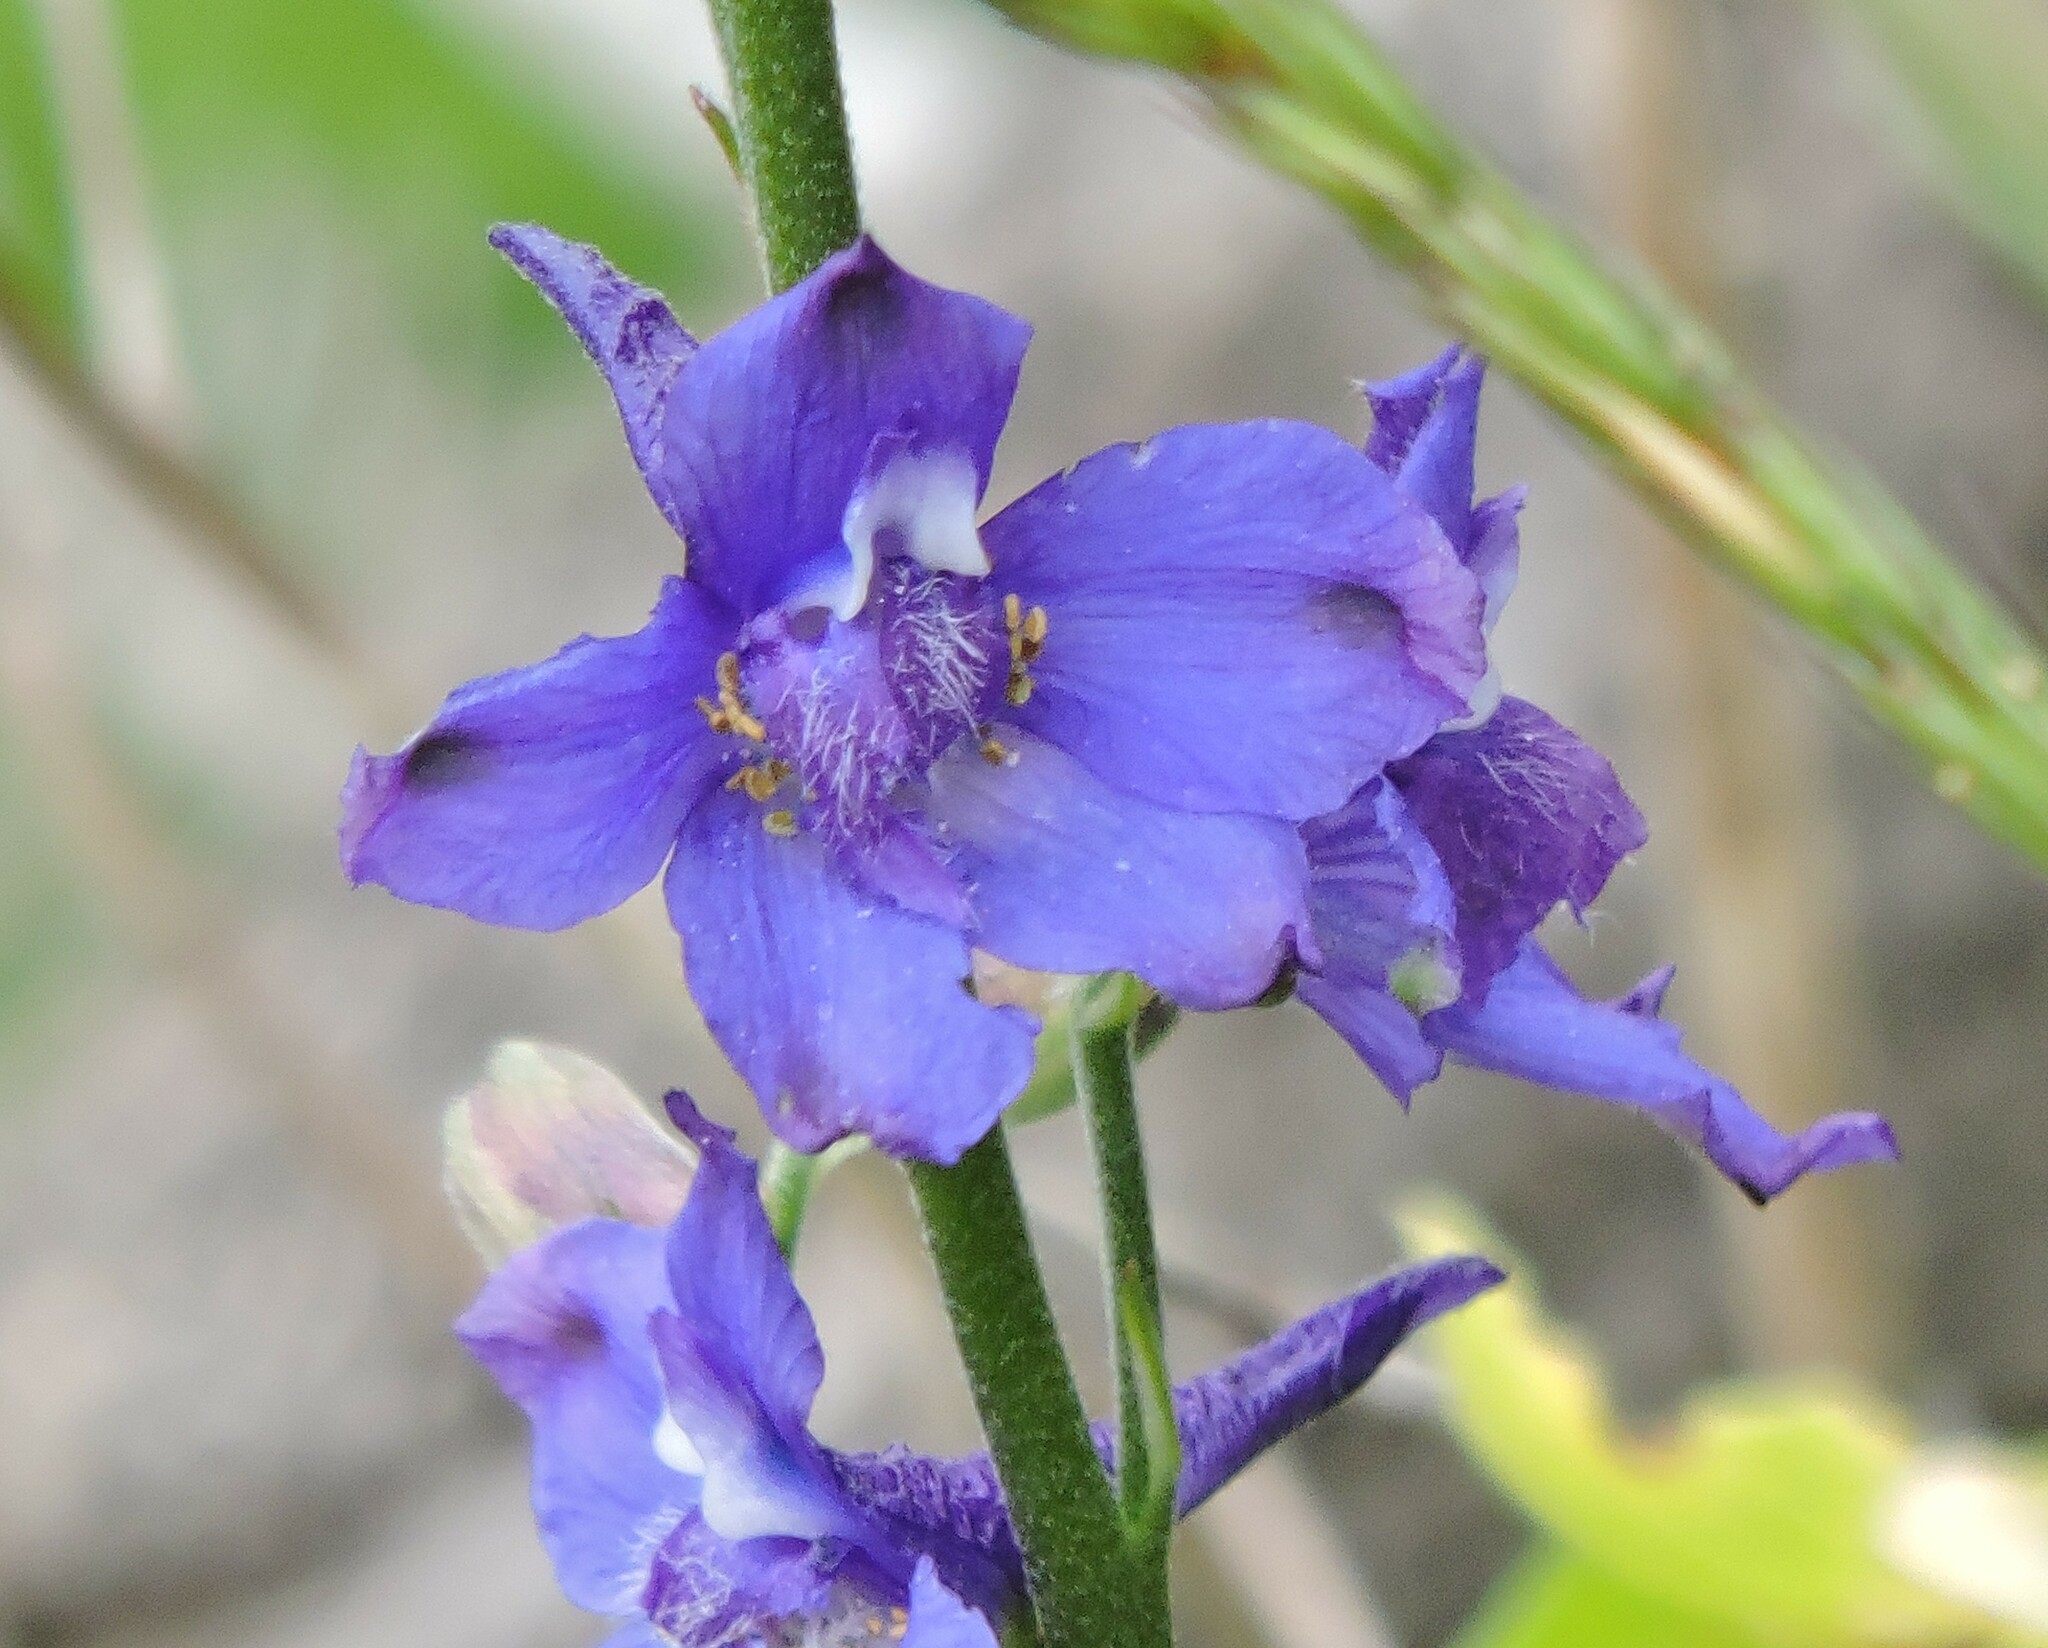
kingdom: Plantae
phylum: Tracheophyta
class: Magnoliopsida
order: Ranunculales
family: Ranunculaceae
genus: Delphinium
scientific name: Delphinium hesperium
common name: Western larkspur
